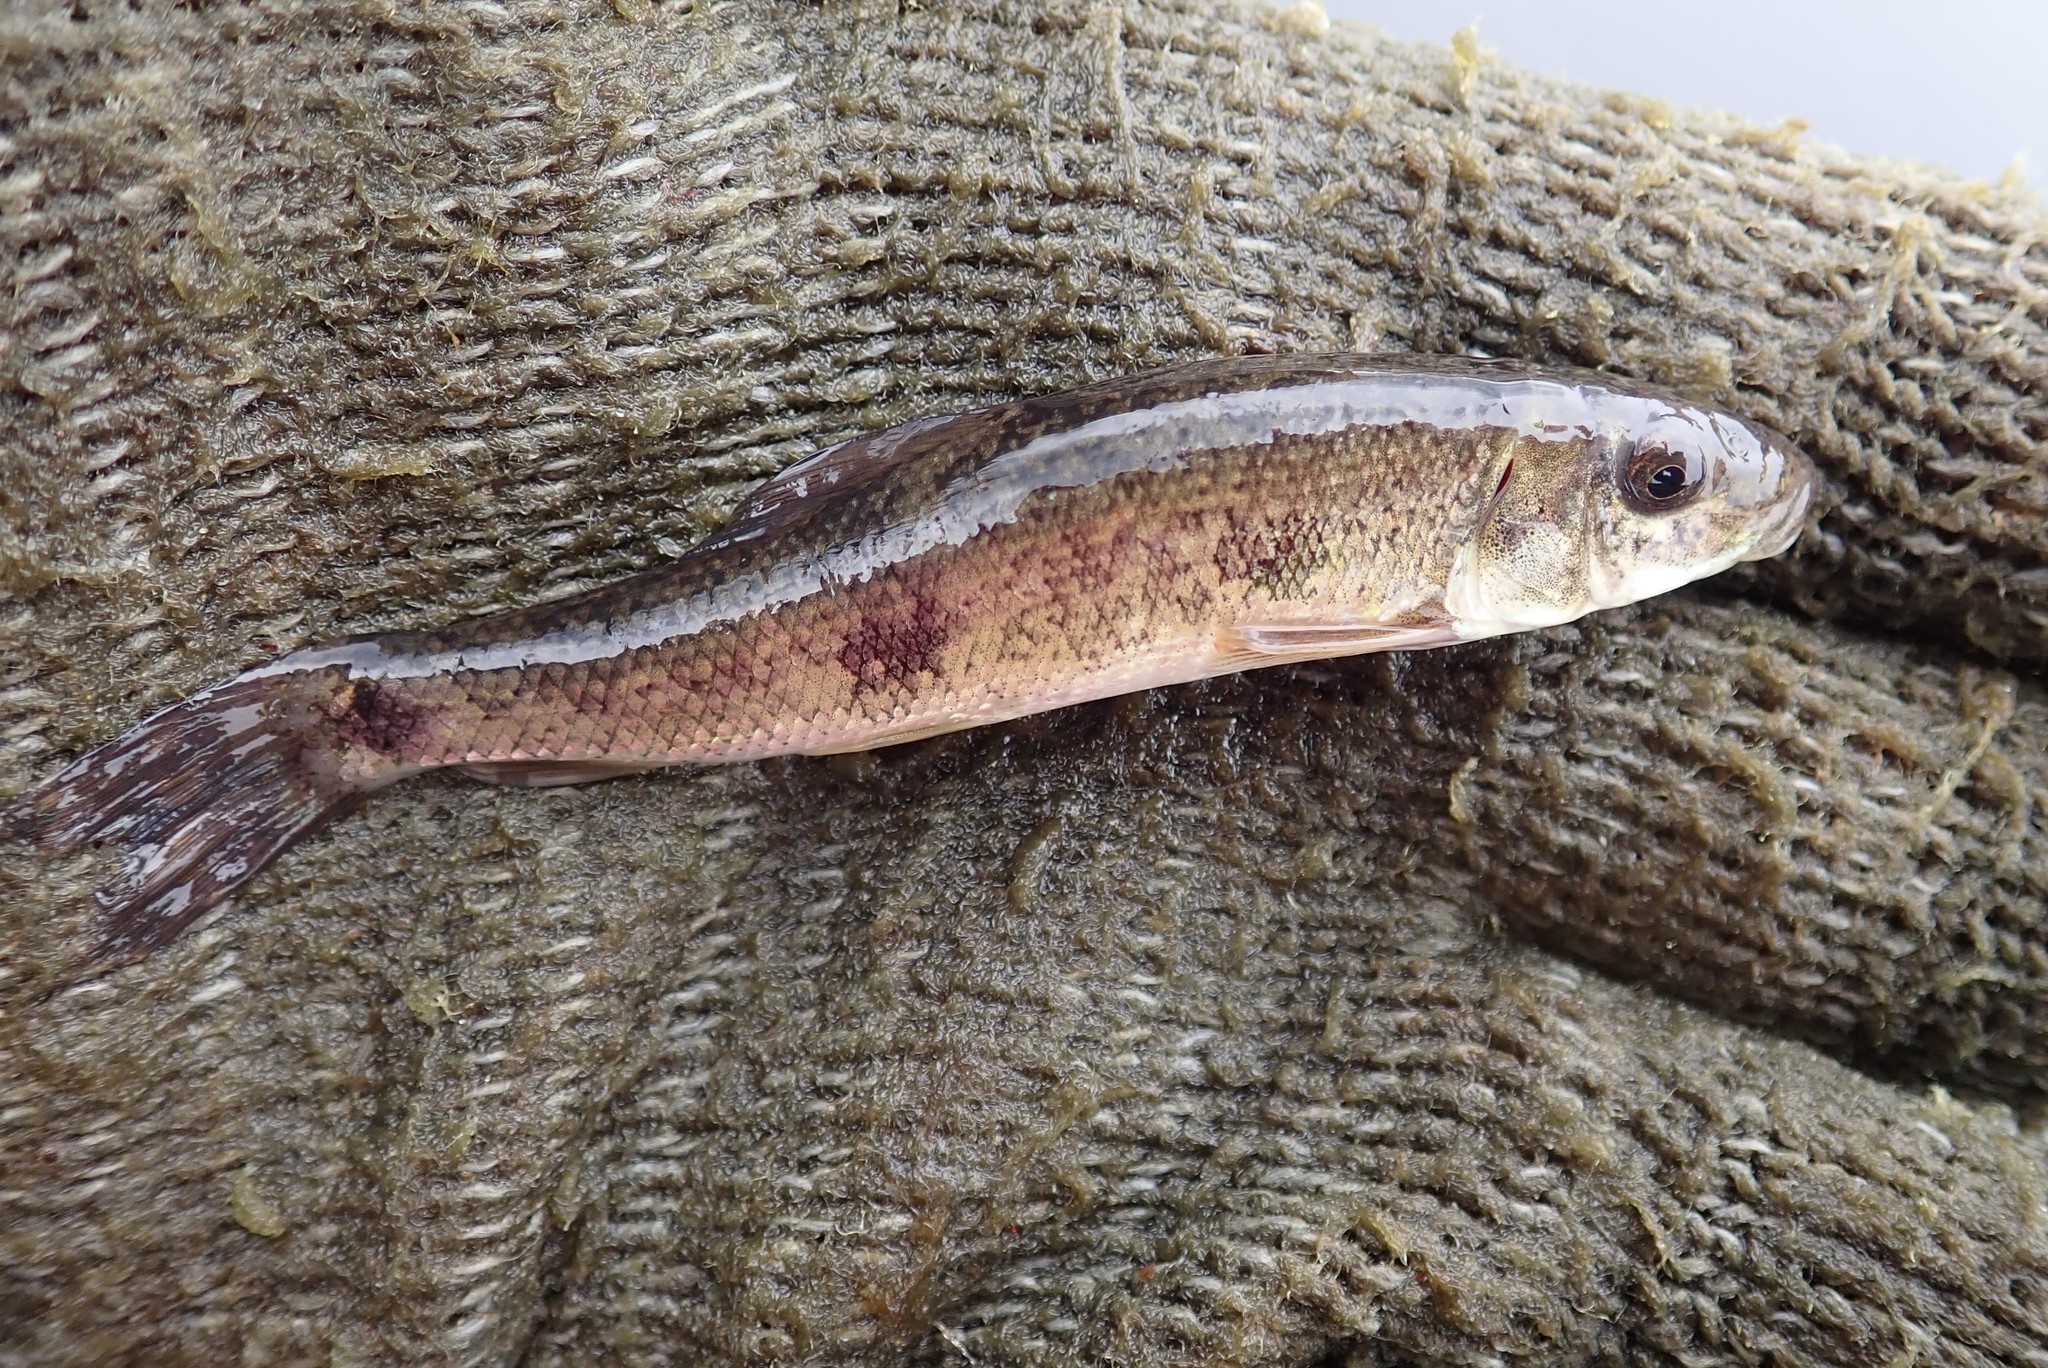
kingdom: Animalia
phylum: Chordata
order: Cypriniformes
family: Catostomidae
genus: Catostomus
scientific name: Catostomus commersonii
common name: White sucker
